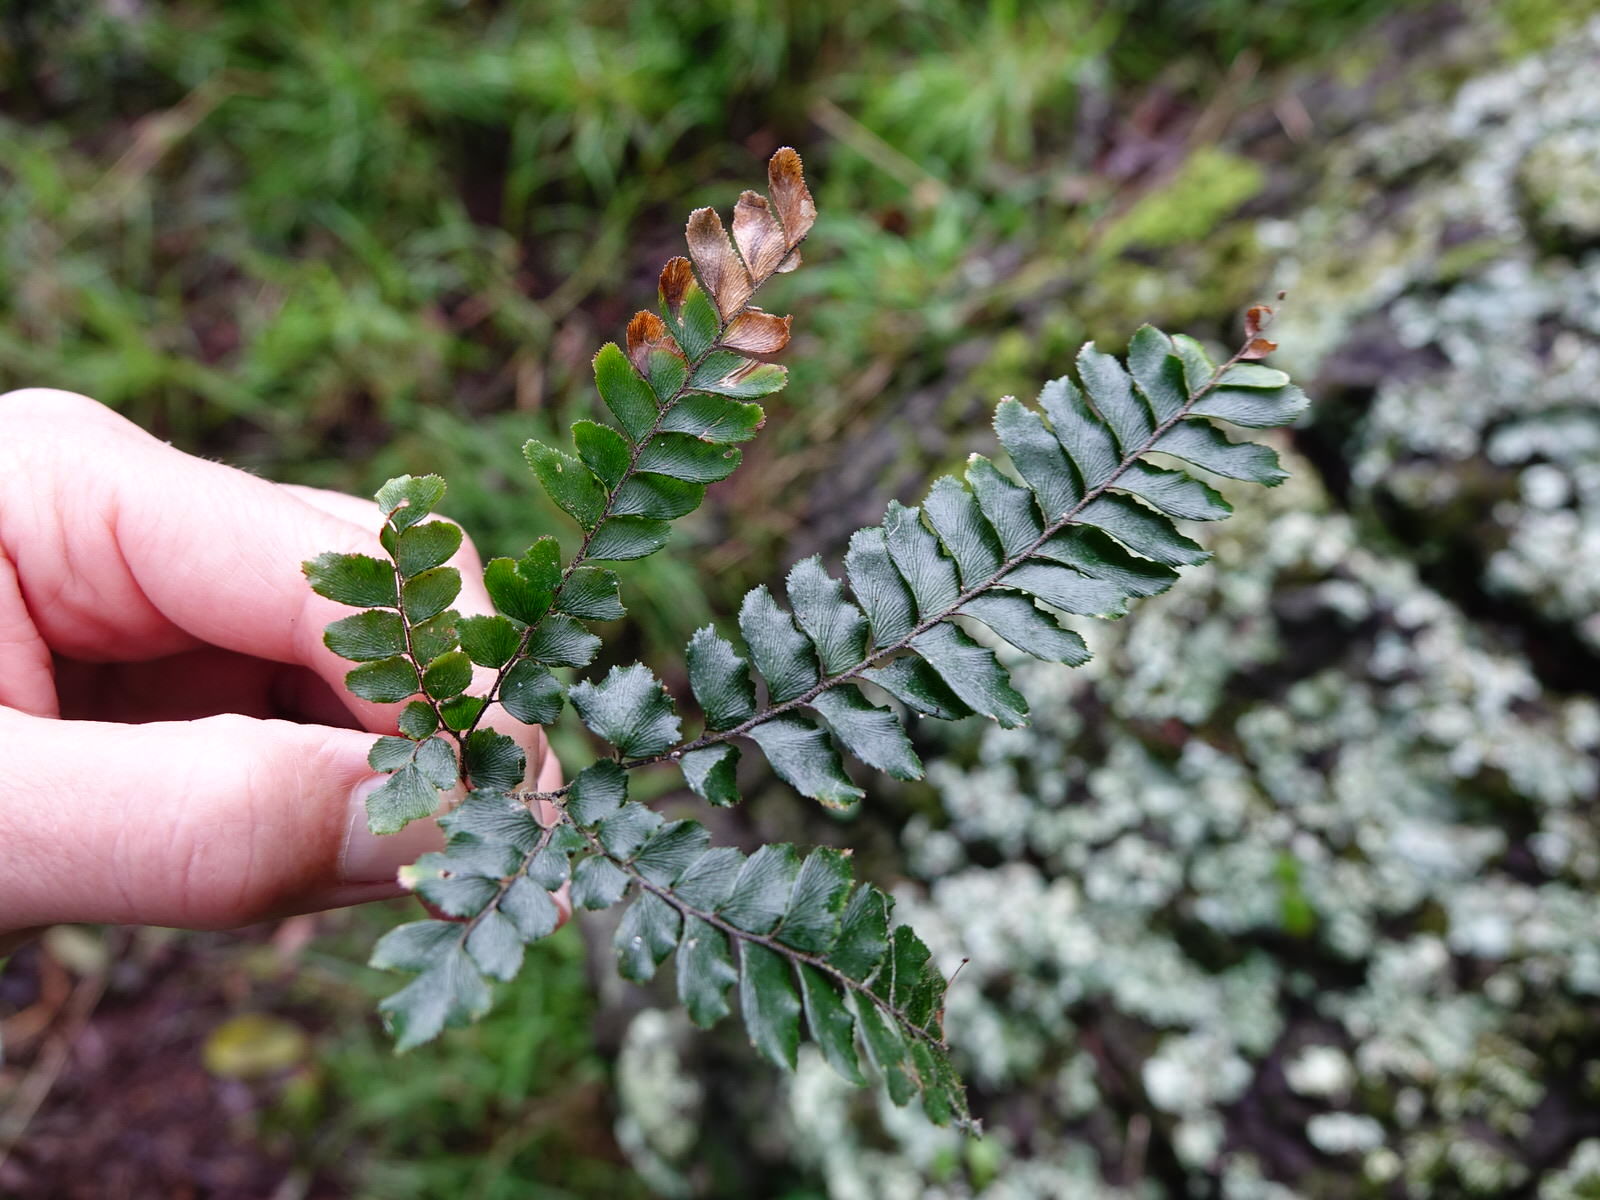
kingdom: Plantae
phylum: Tracheophyta
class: Polypodiopsida
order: Polypodiales
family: Pteridaceae
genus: Adiantum
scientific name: Adiantum hispidulum
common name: Rough maidenhair
